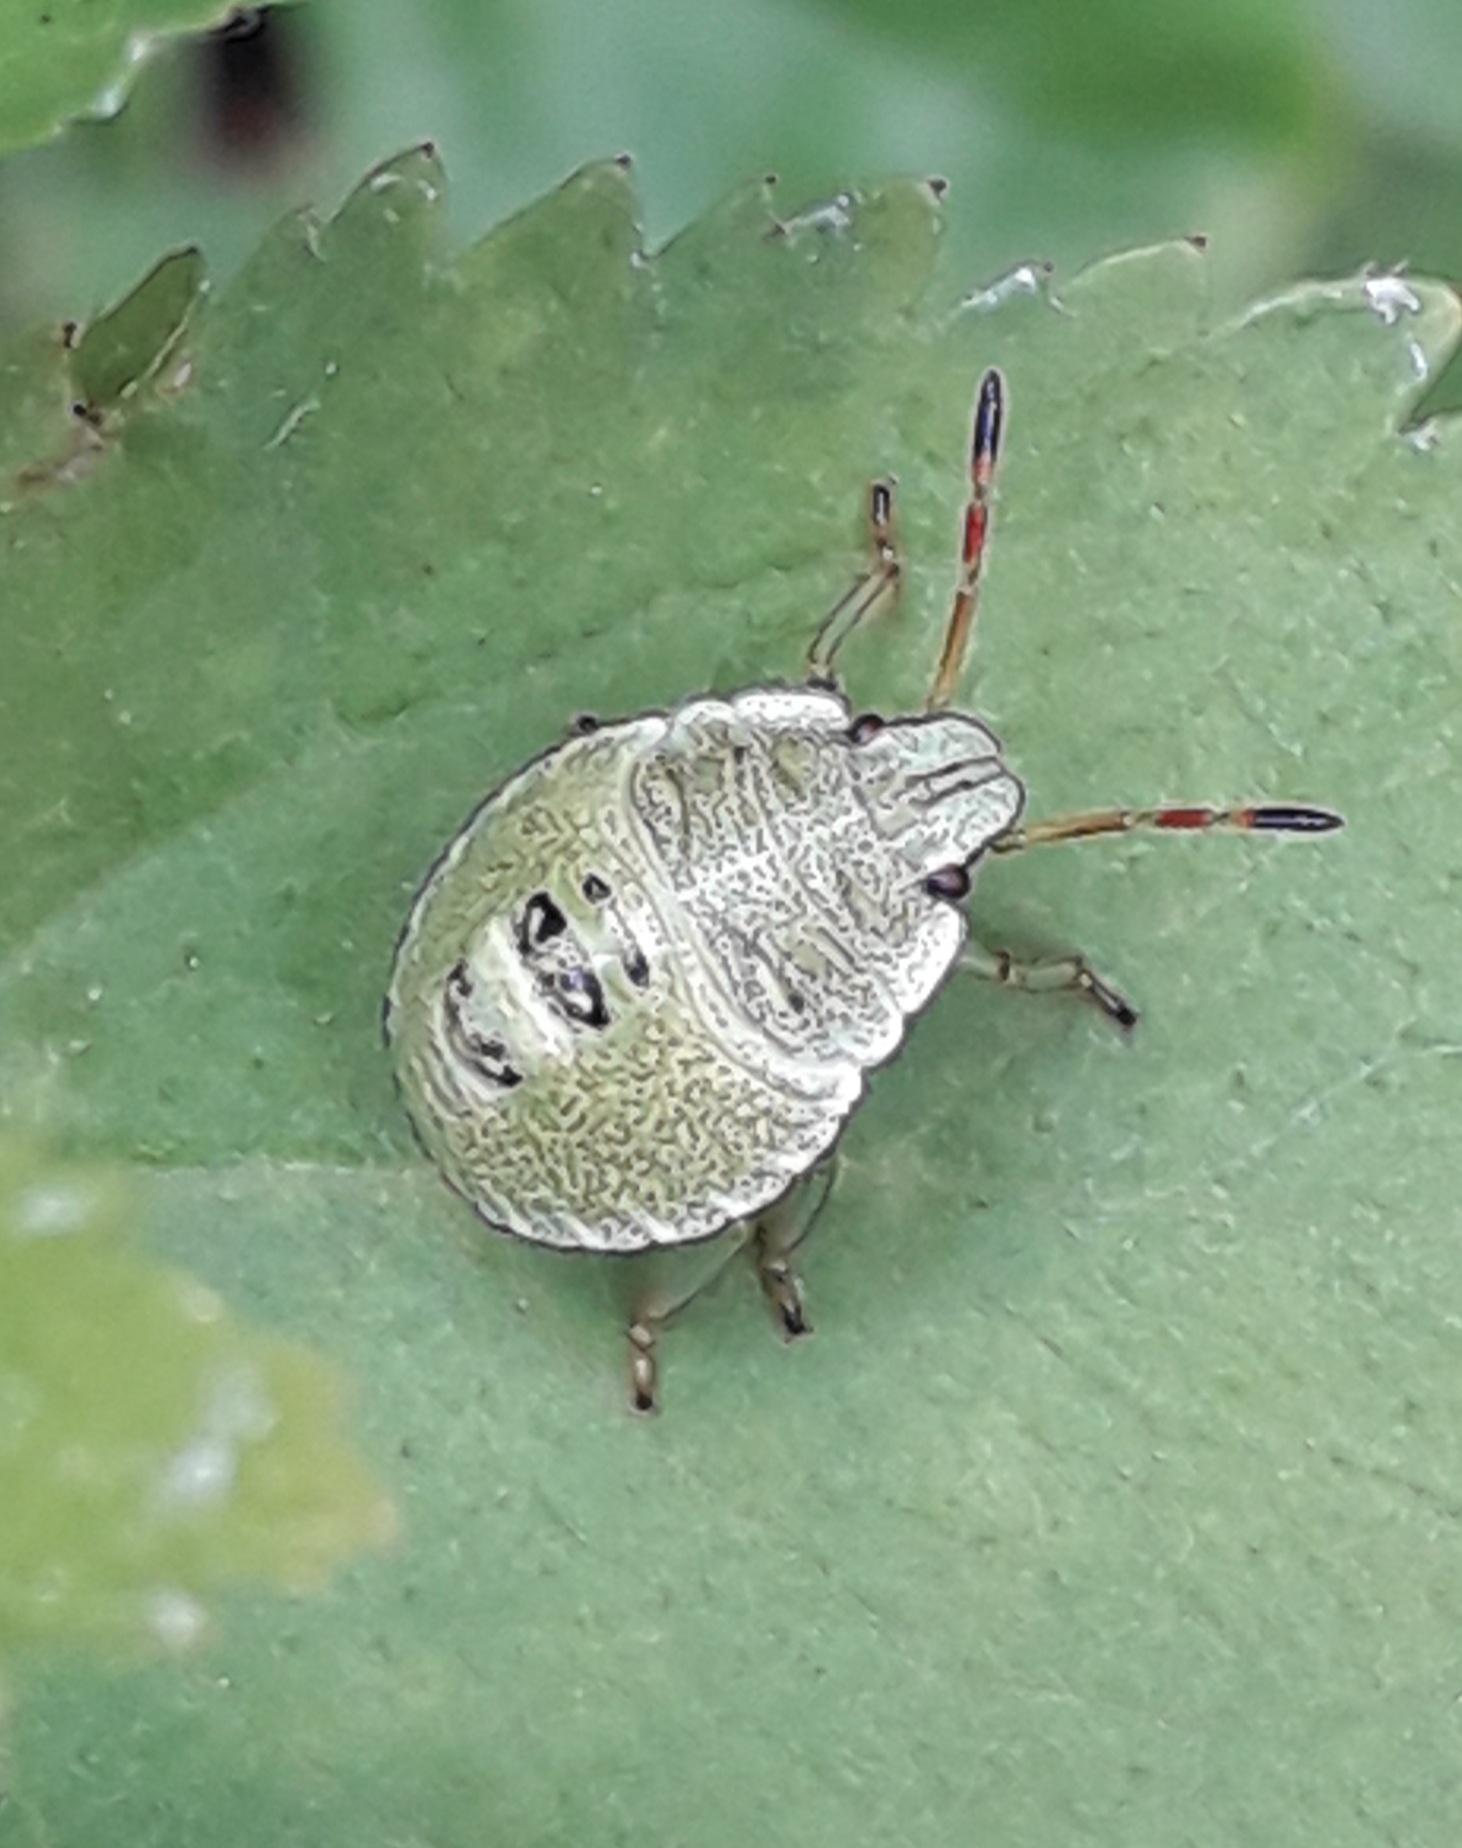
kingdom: Animalia
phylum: Arthropoda
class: Insecta
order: Hemiptera
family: Pentatomidae
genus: Palomena
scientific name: Palomena prasina
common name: Green shieldbug
